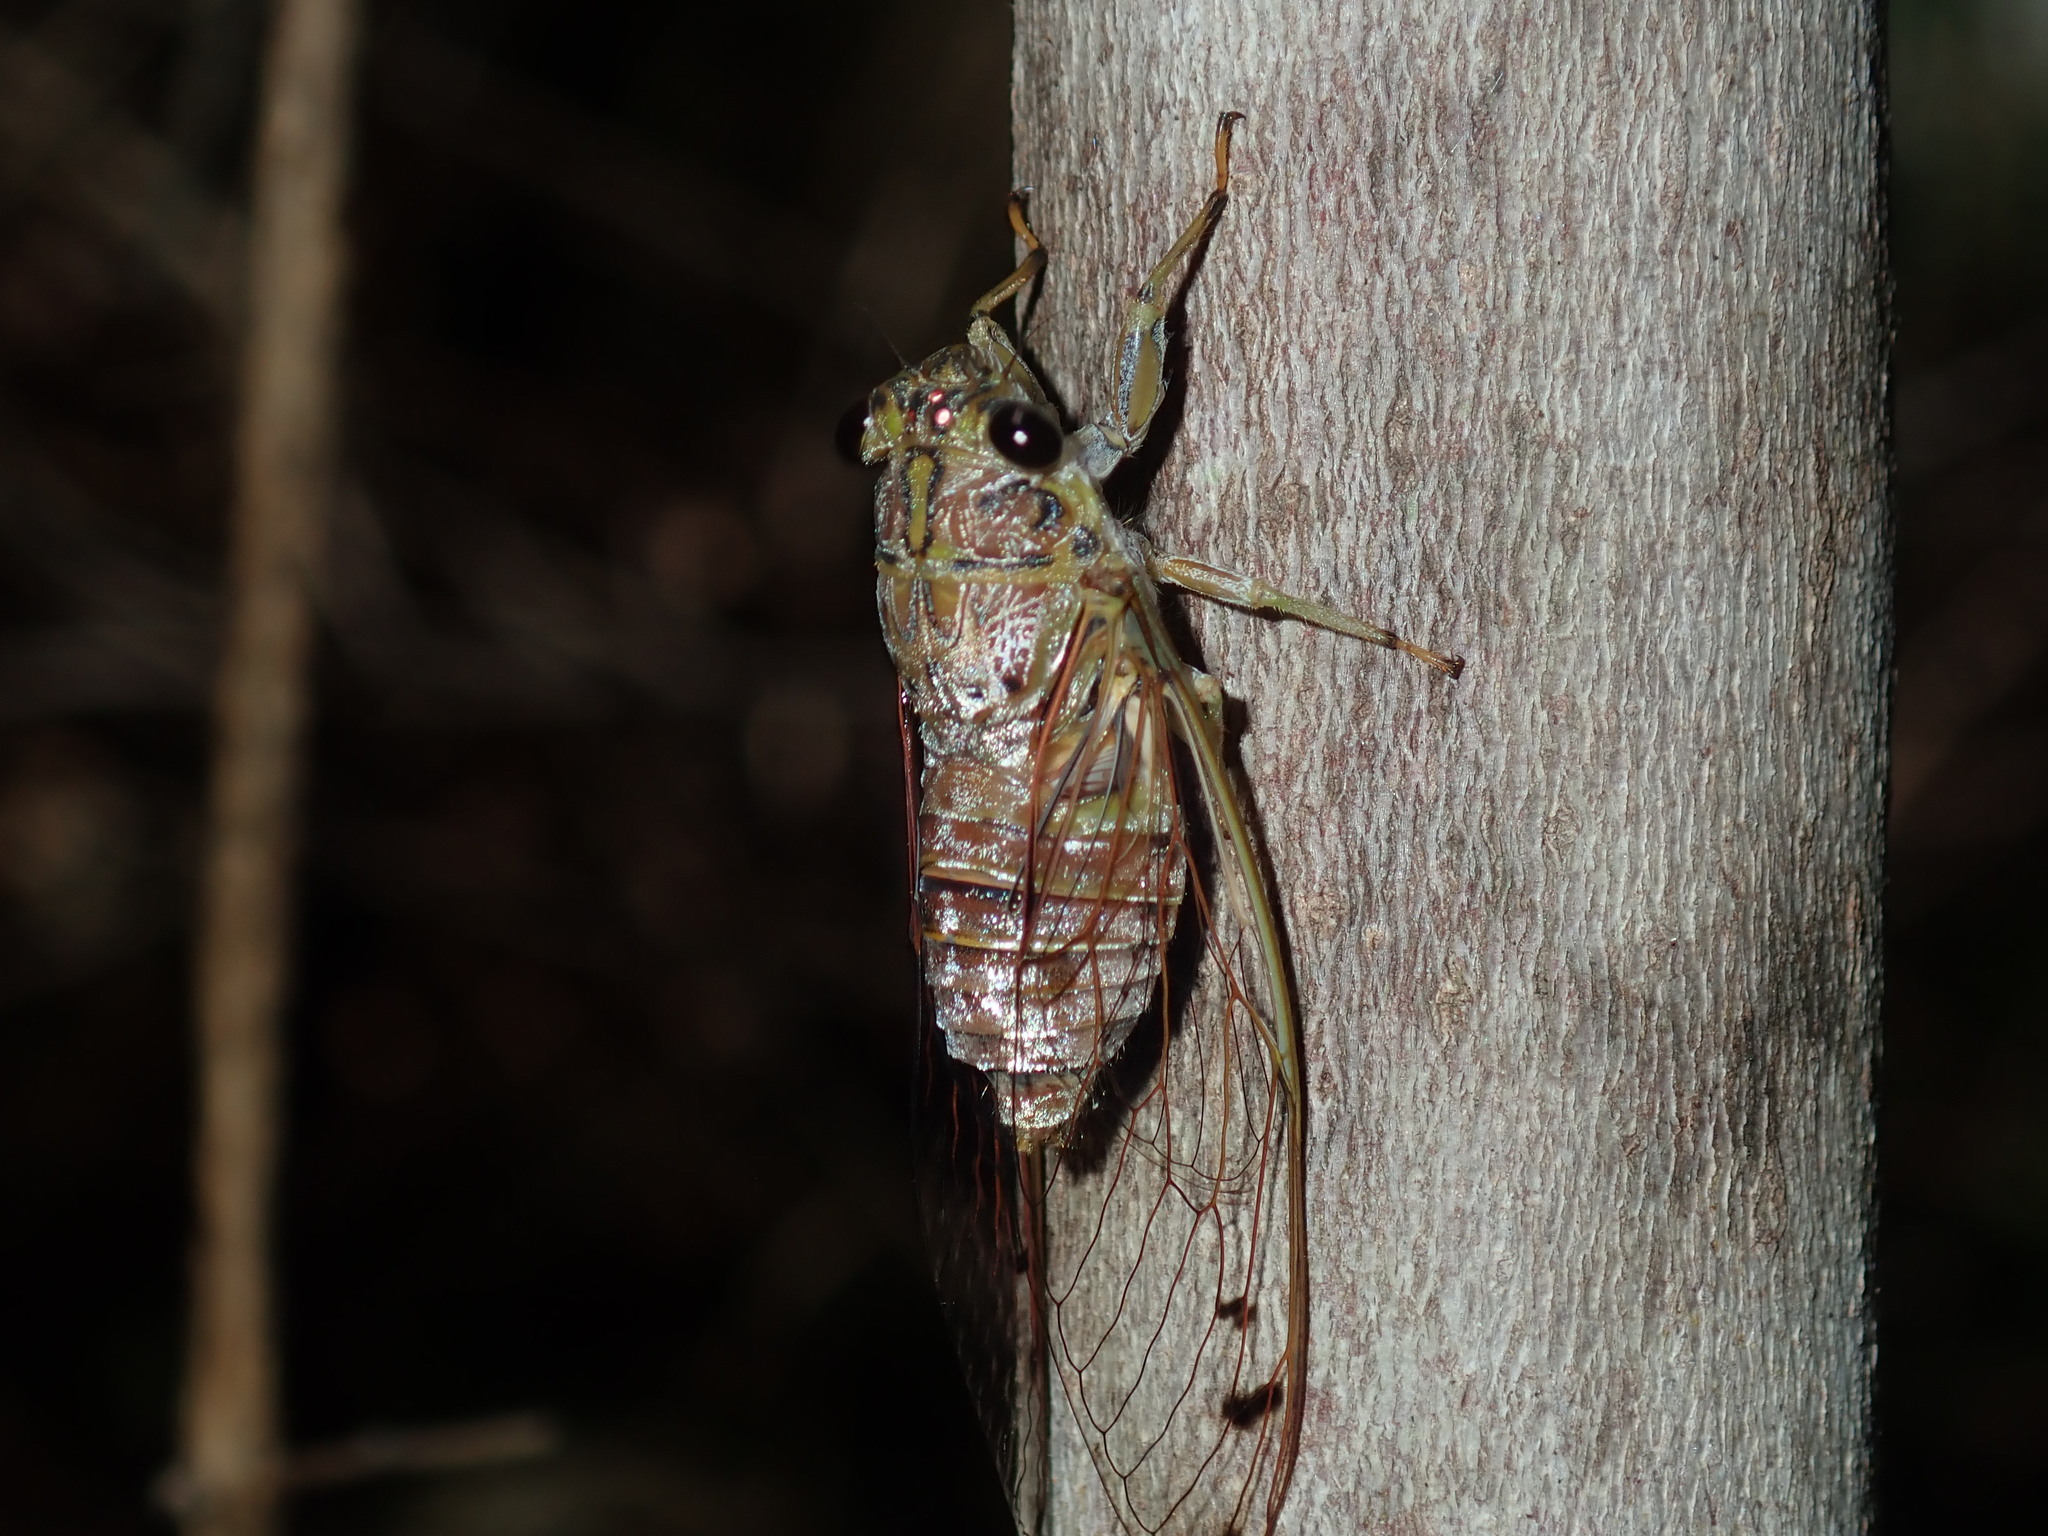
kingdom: Animalia
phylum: Arthropoda
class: Insecta
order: Hemiptera
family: Cicadidae
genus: Tamasa
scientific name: Tamasa tristigma
